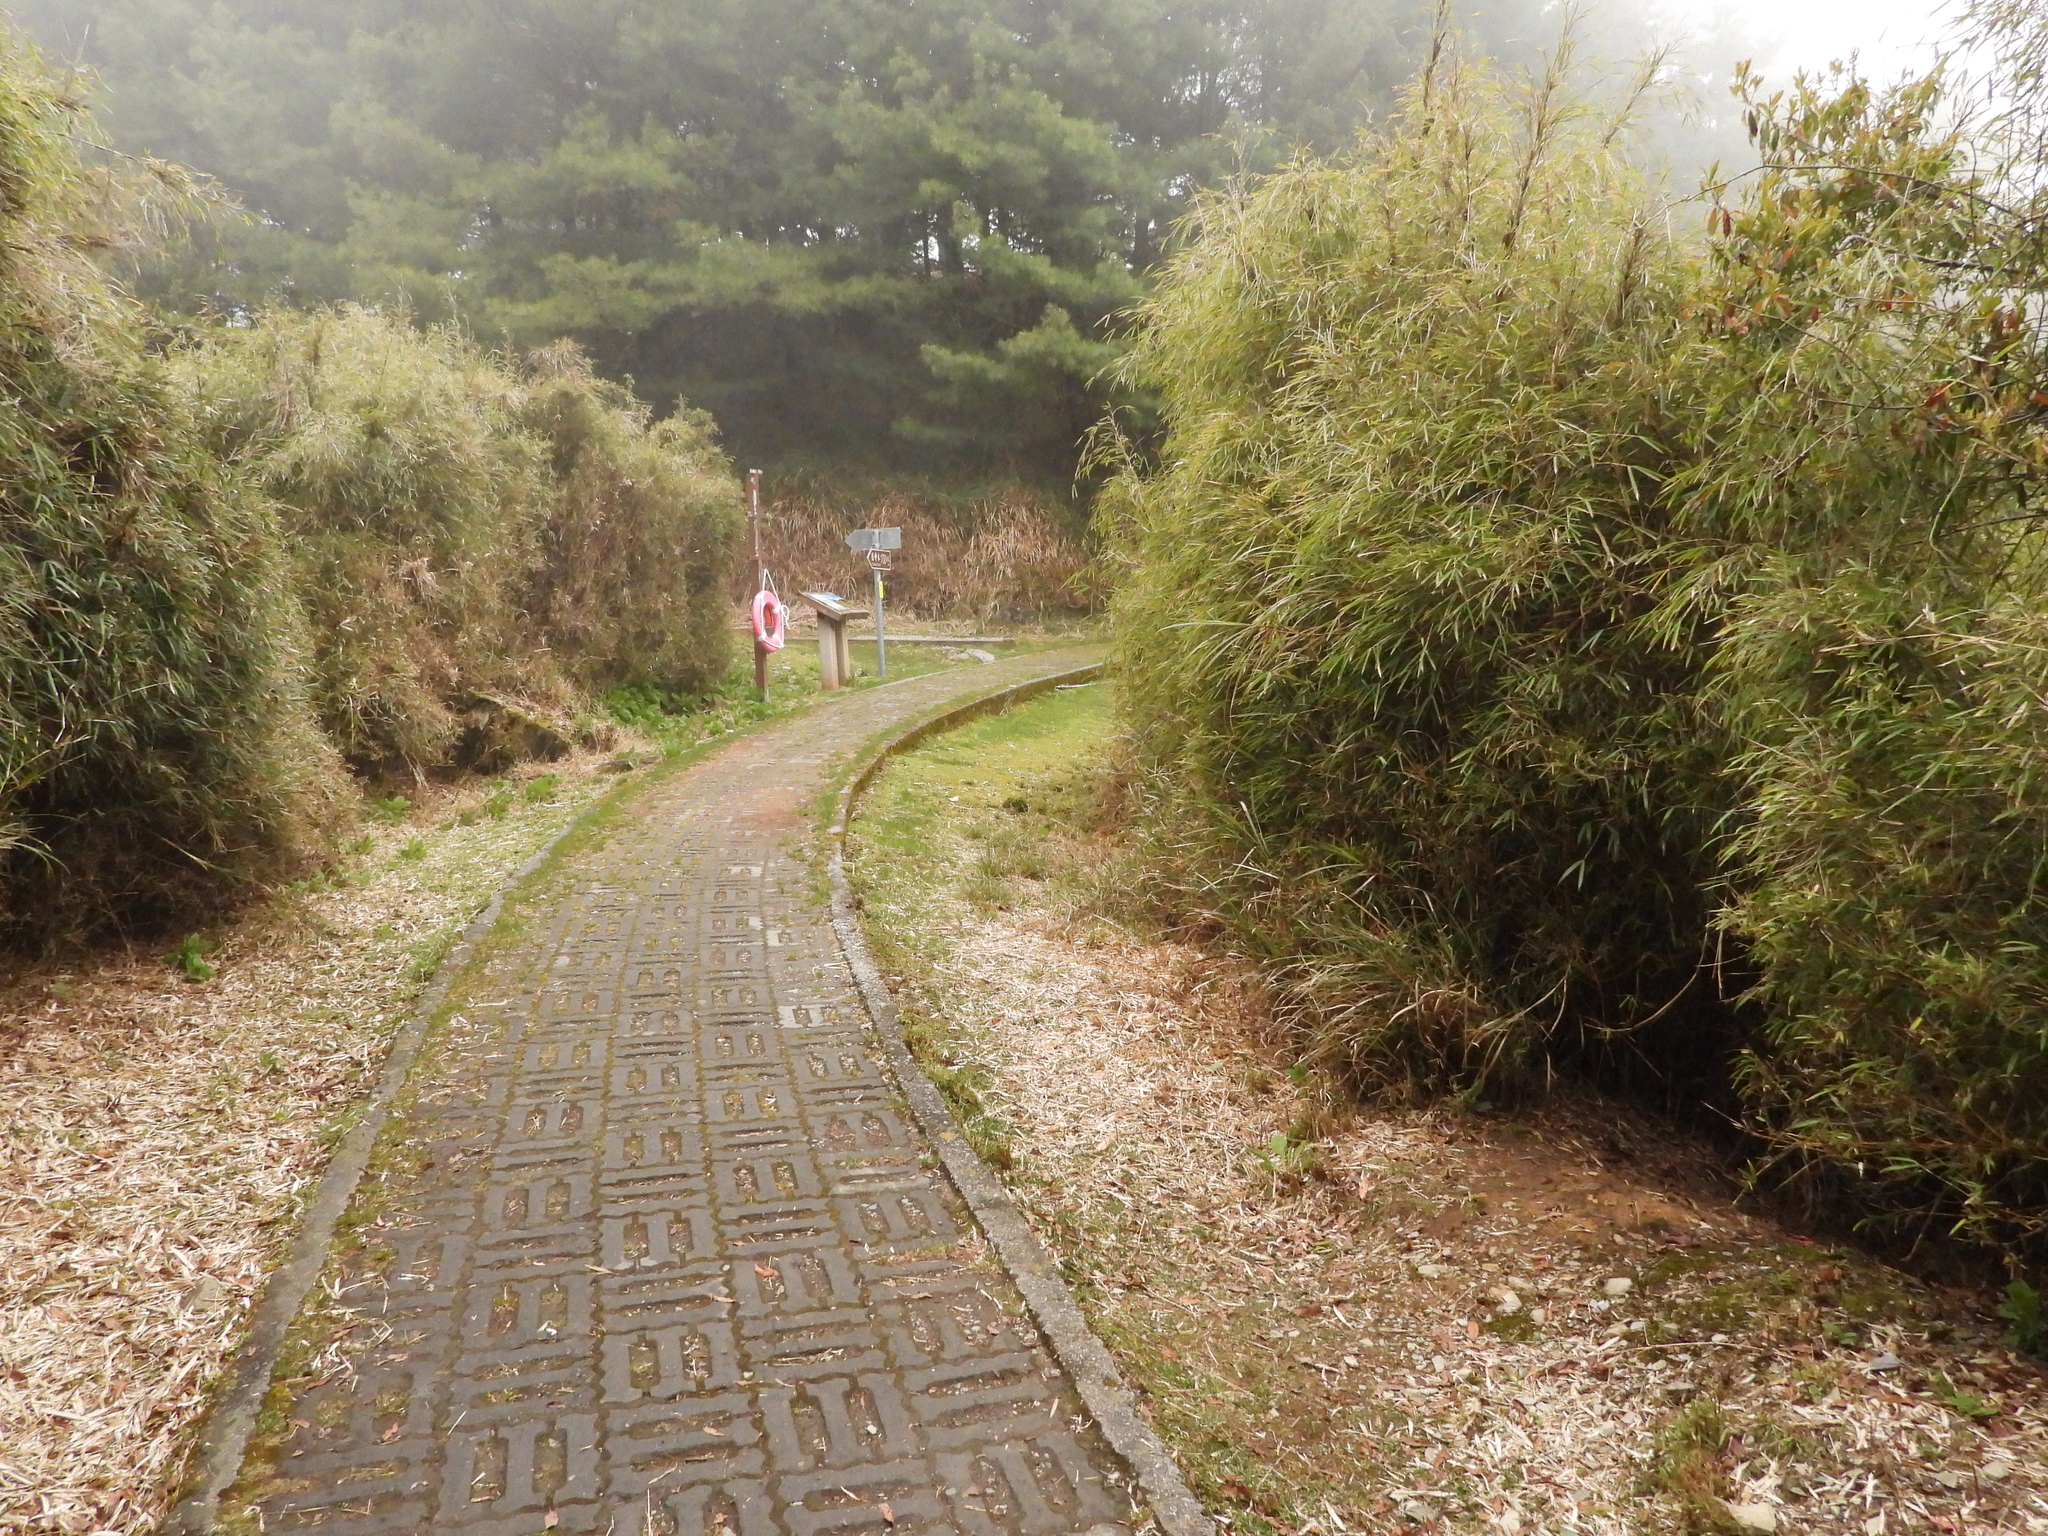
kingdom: Animalia
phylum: Chordata
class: Mammalia
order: Carnivora
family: Mustelidae
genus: Mustela
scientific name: Mustela sibirica
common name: Siberian weasel
